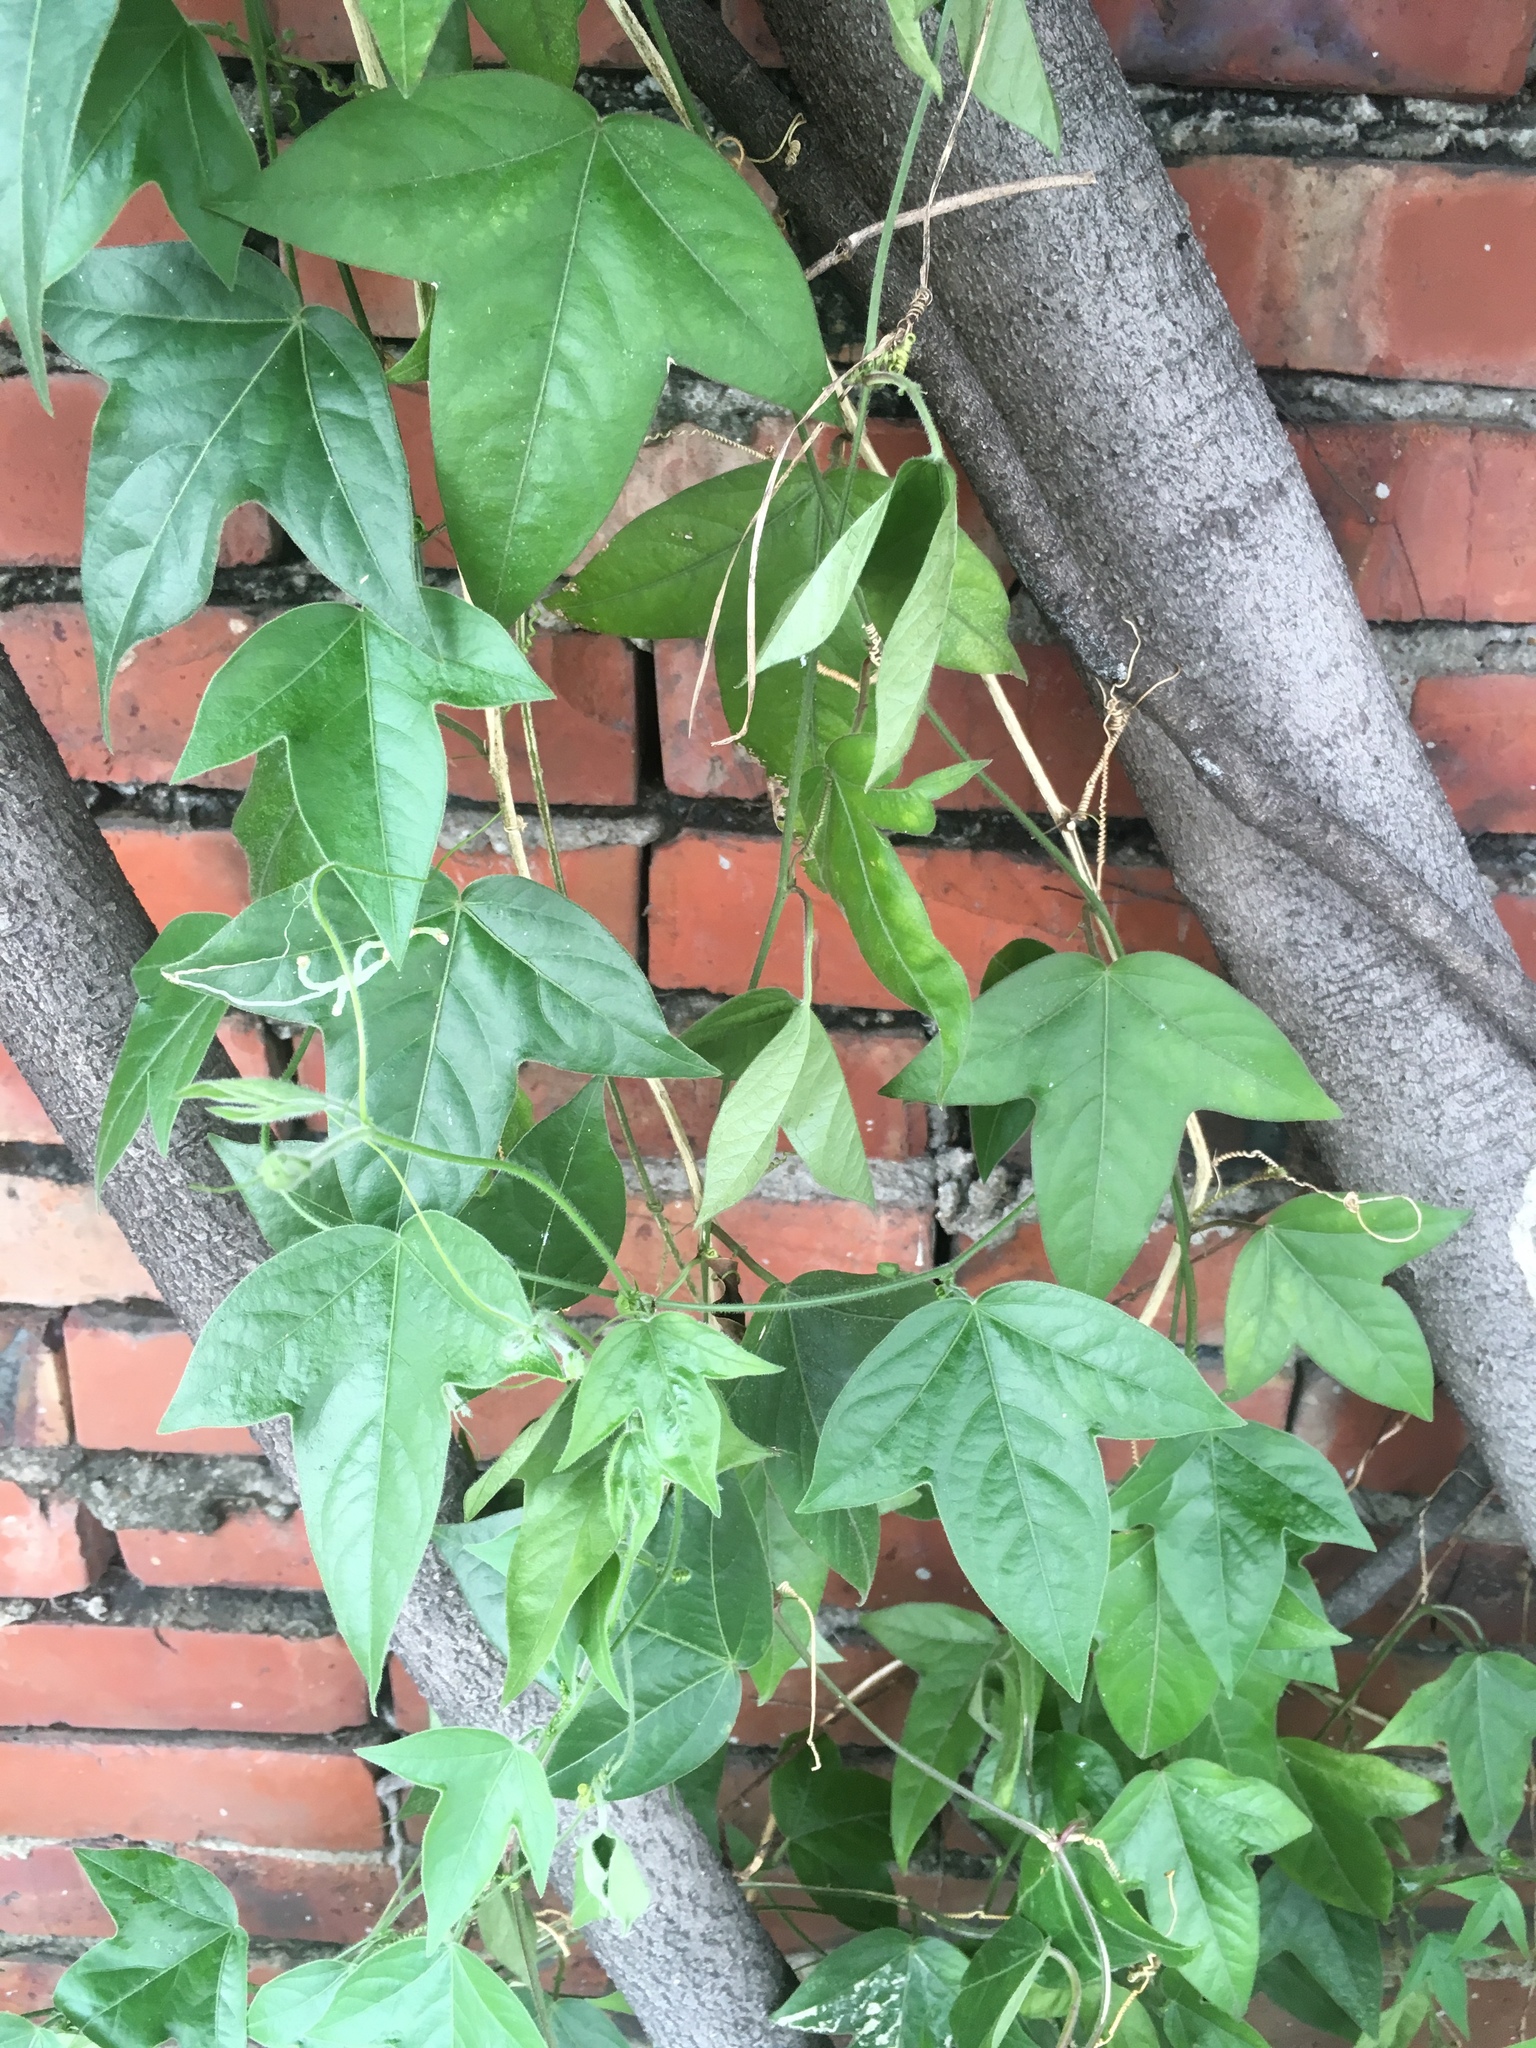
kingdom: Plantae
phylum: Tracheophyta
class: Magnoliopsida
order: Malpighiales
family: Passifloraceae
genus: Passiflora
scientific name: Passiflora suberosa
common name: Wild passionfruit
